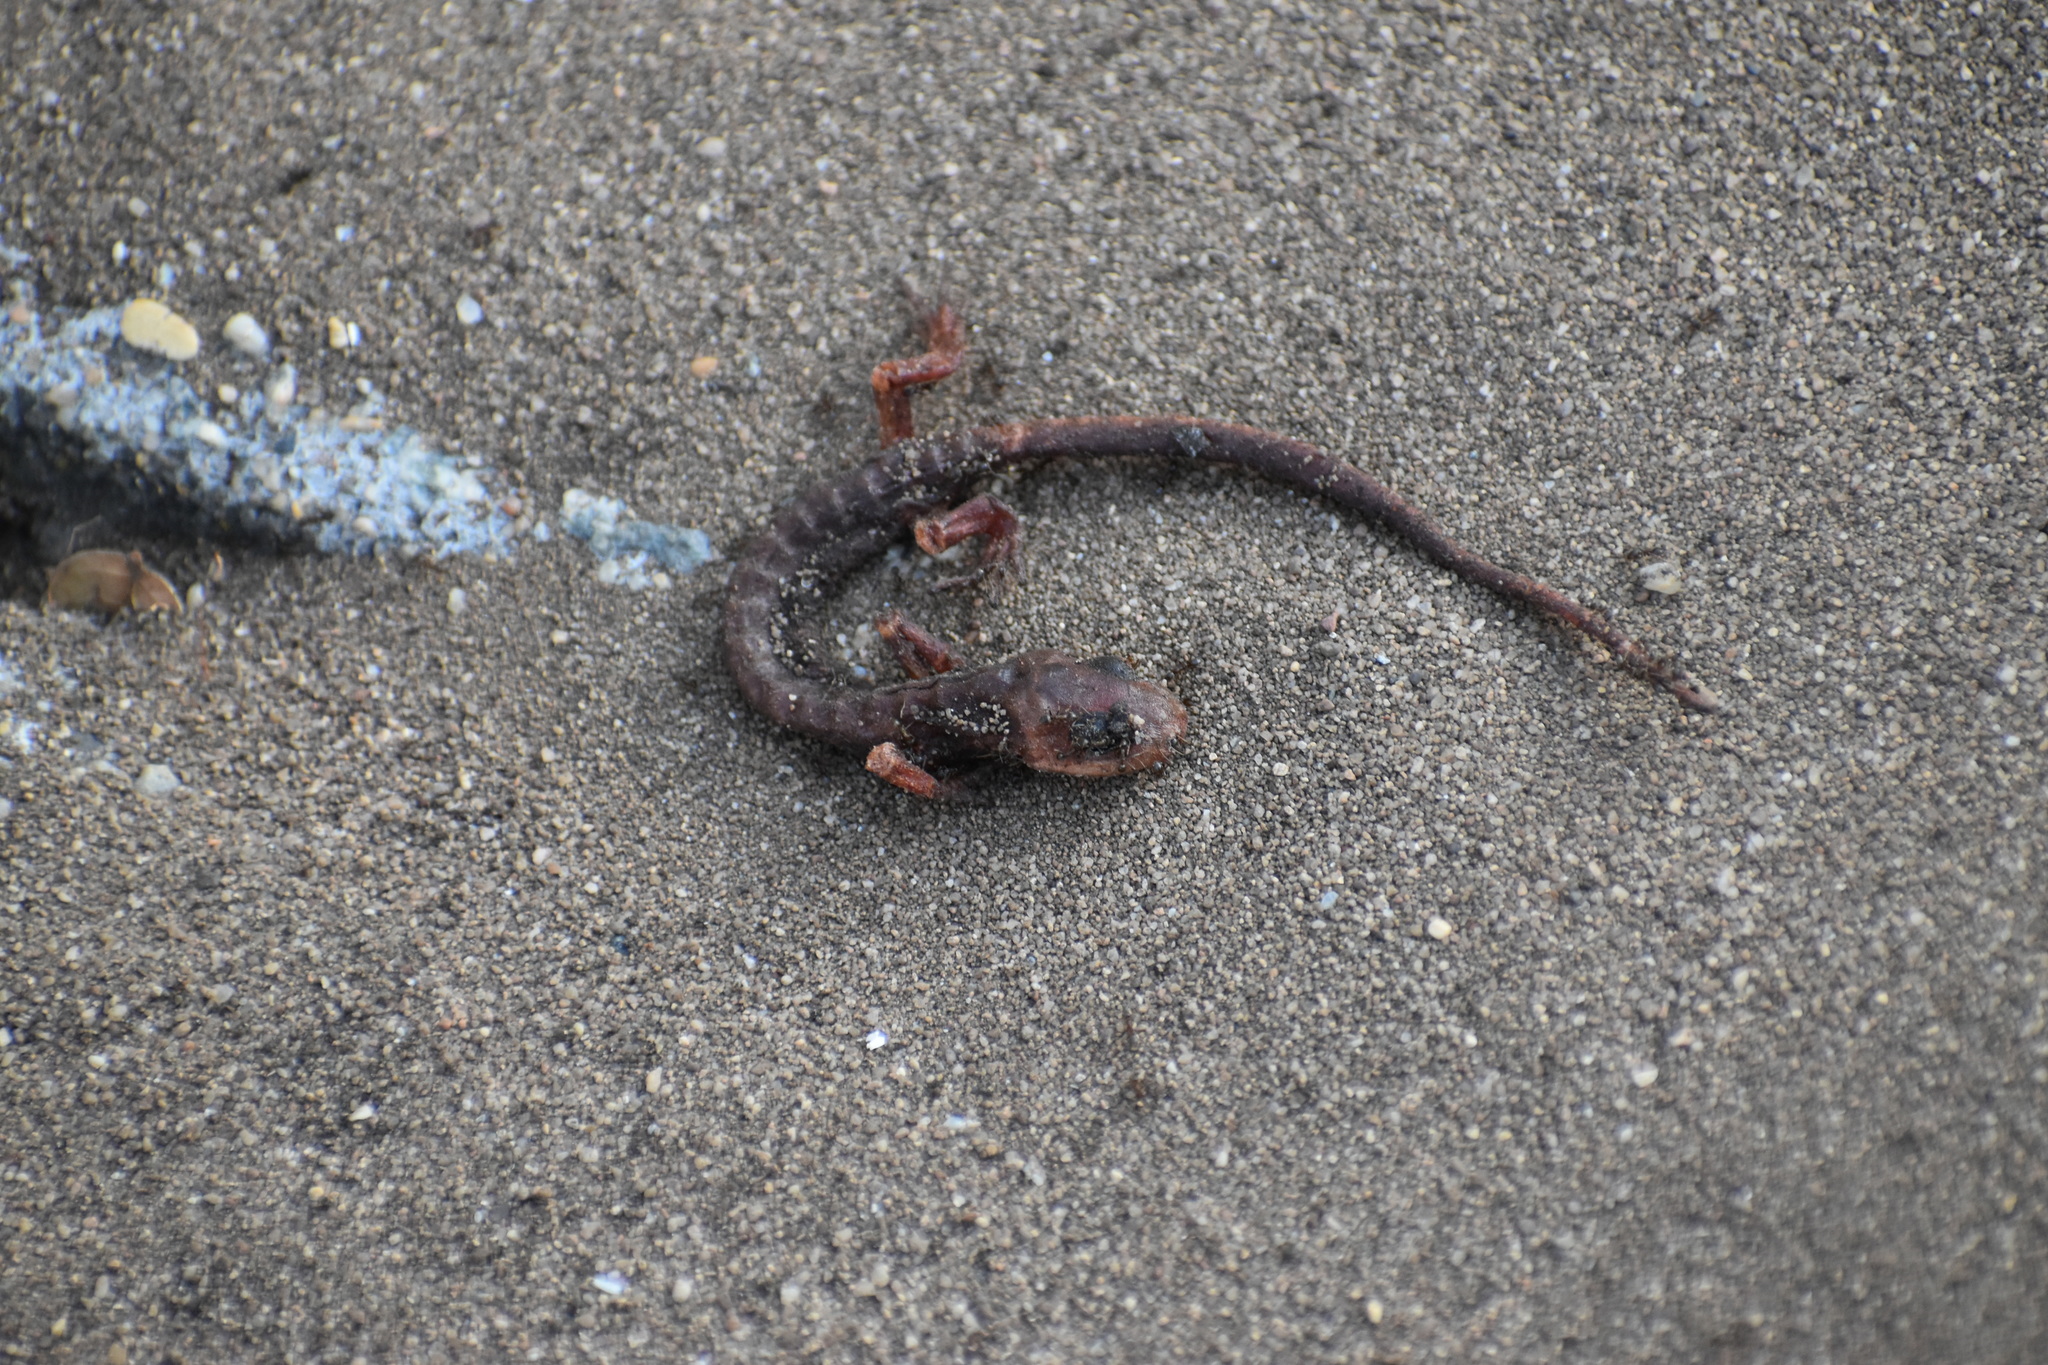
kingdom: Animalia
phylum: Chordata
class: Amphibia
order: Caudata
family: Plethodontidae
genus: Ensatina
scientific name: Ensatina eschscholtzii
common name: Ensatina
